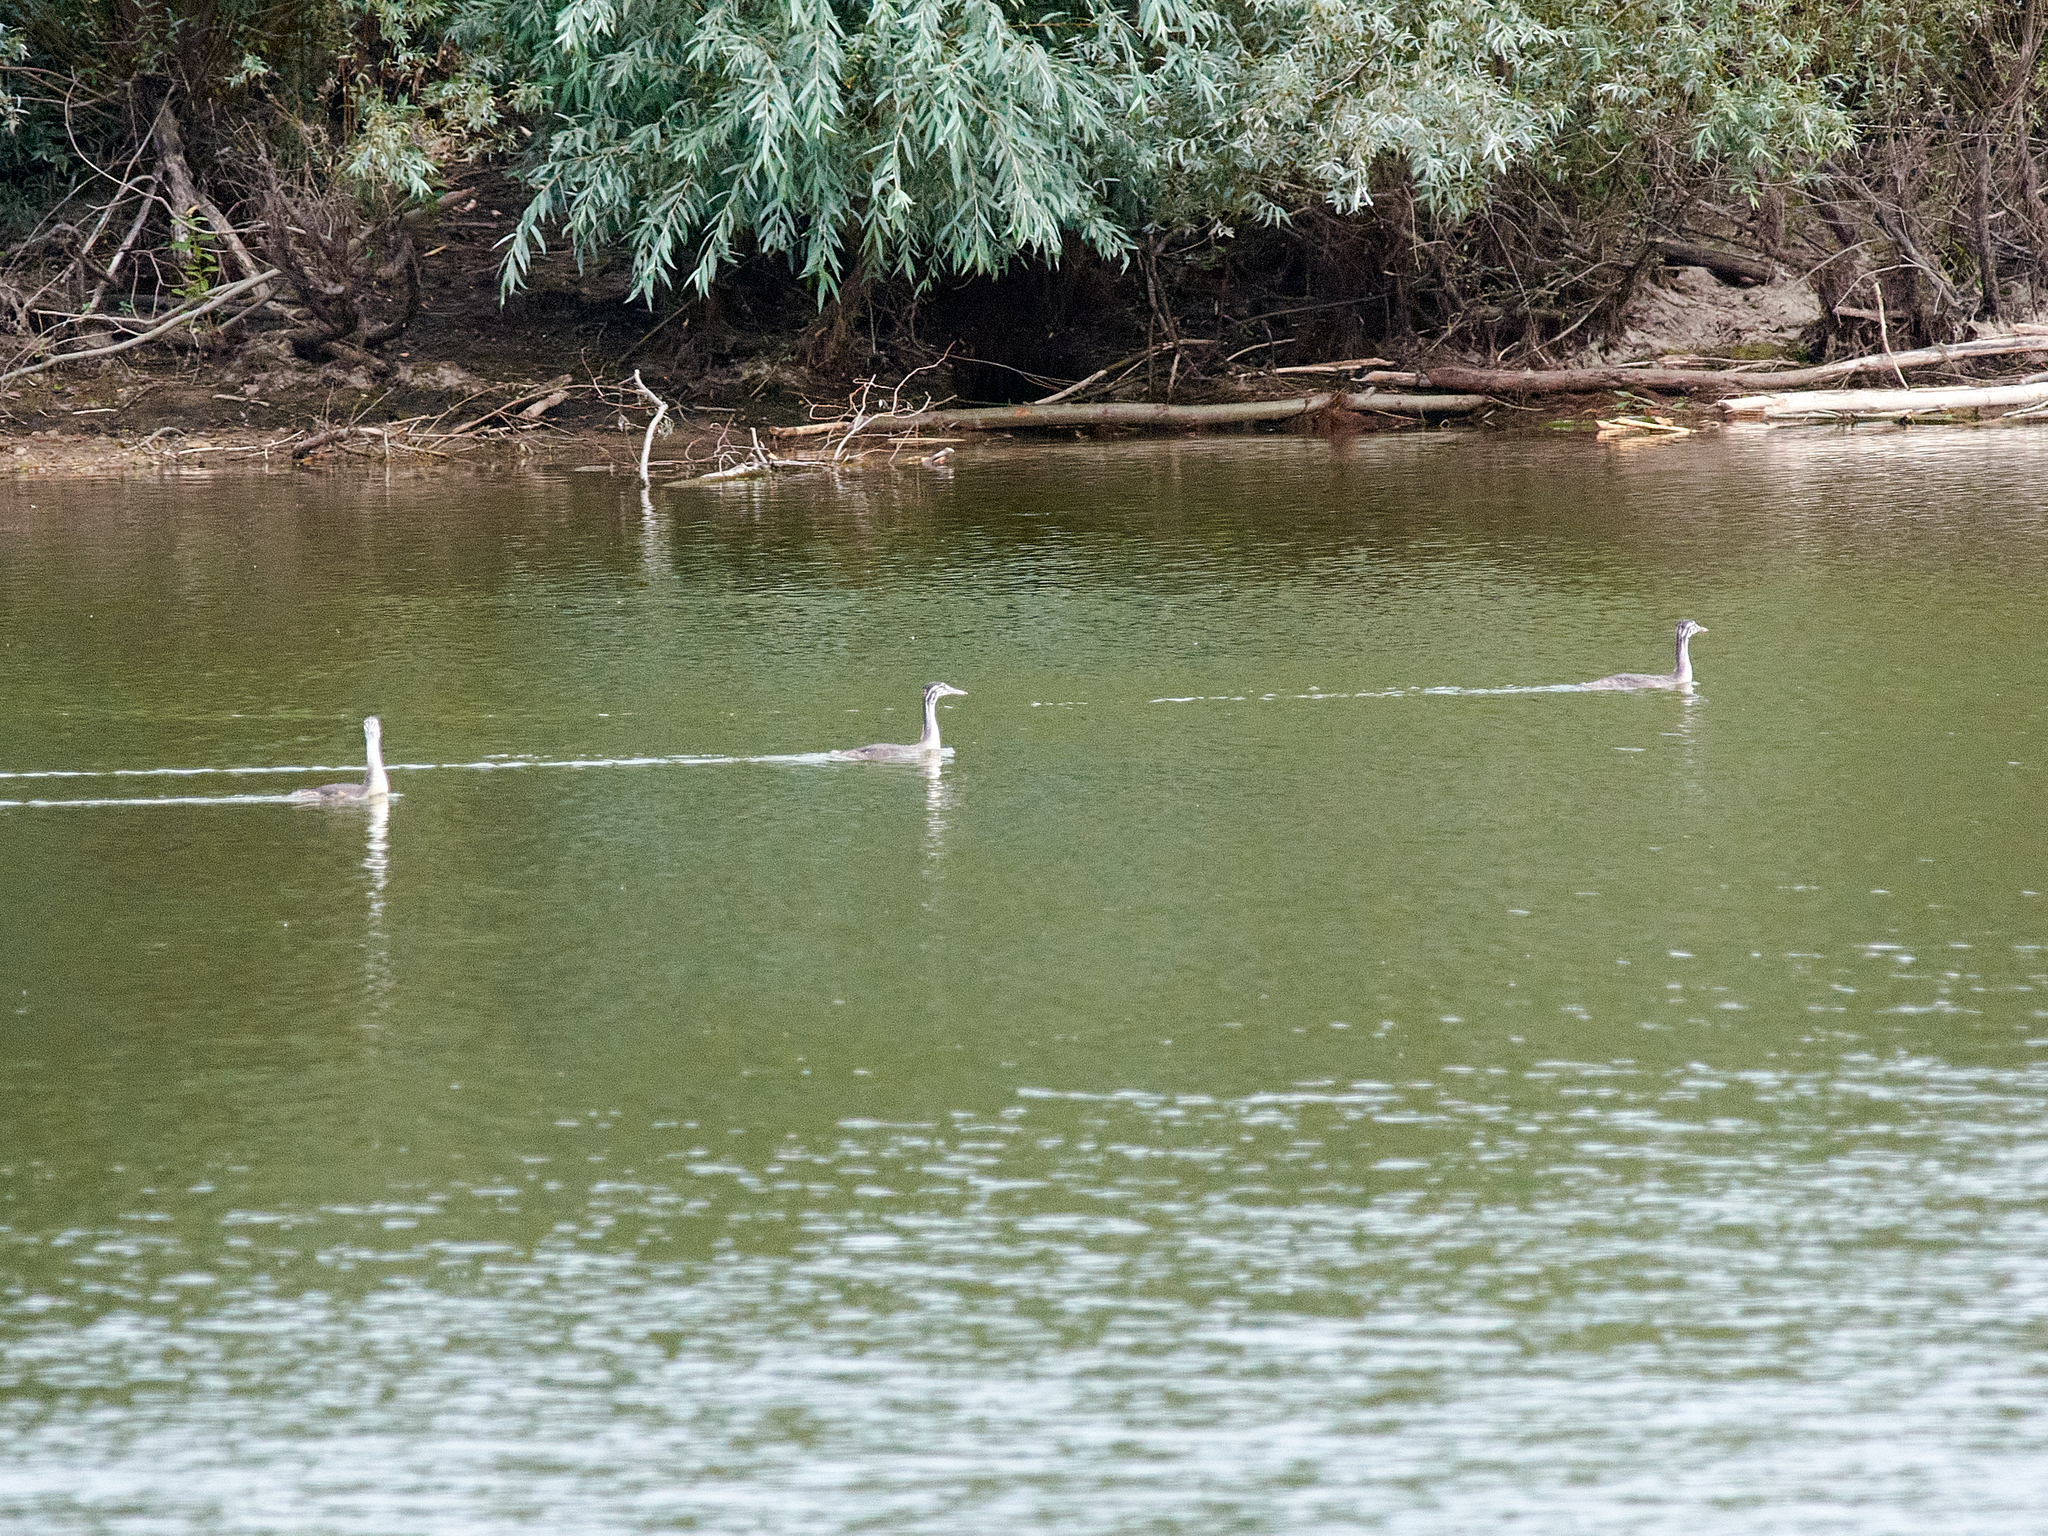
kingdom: Animalia
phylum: Chordata
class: Aves
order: Podicipediformes
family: Podicipedidae
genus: Podiceps
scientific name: Podiceps cristatus
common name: Great crested grebe
